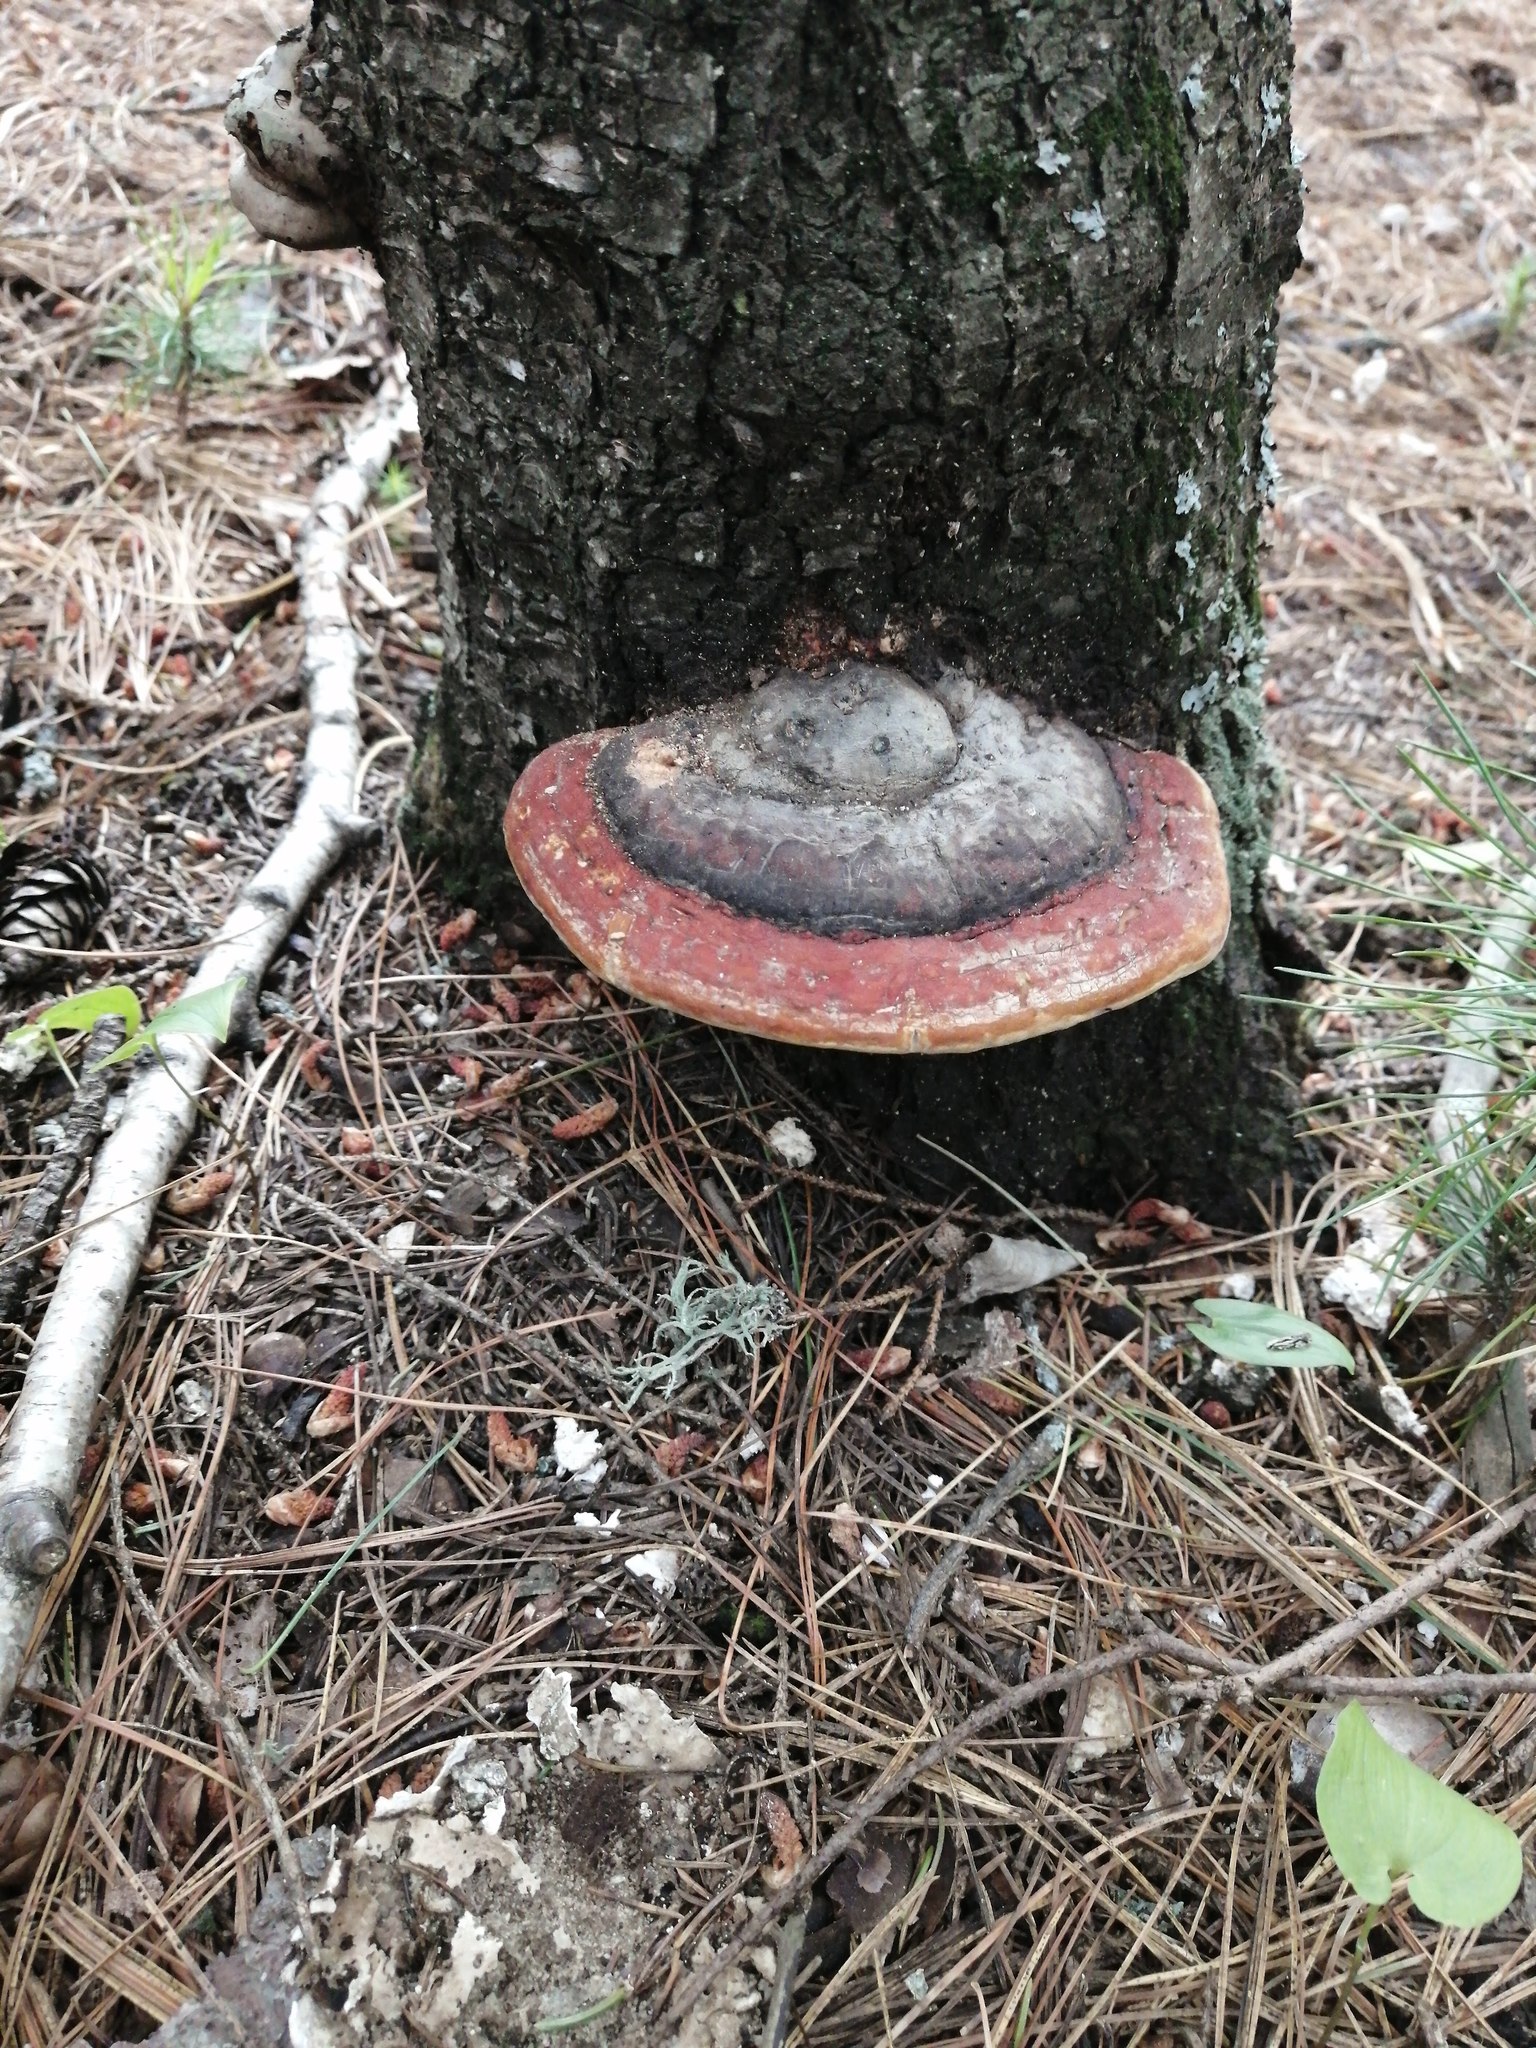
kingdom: Fungi
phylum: Basidiomycota
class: Agaricomycetes
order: Polyporales
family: Fomitopsidaceae
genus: Fomitopsis
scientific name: Fomitopsis pinicola
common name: Red-belted bracket
